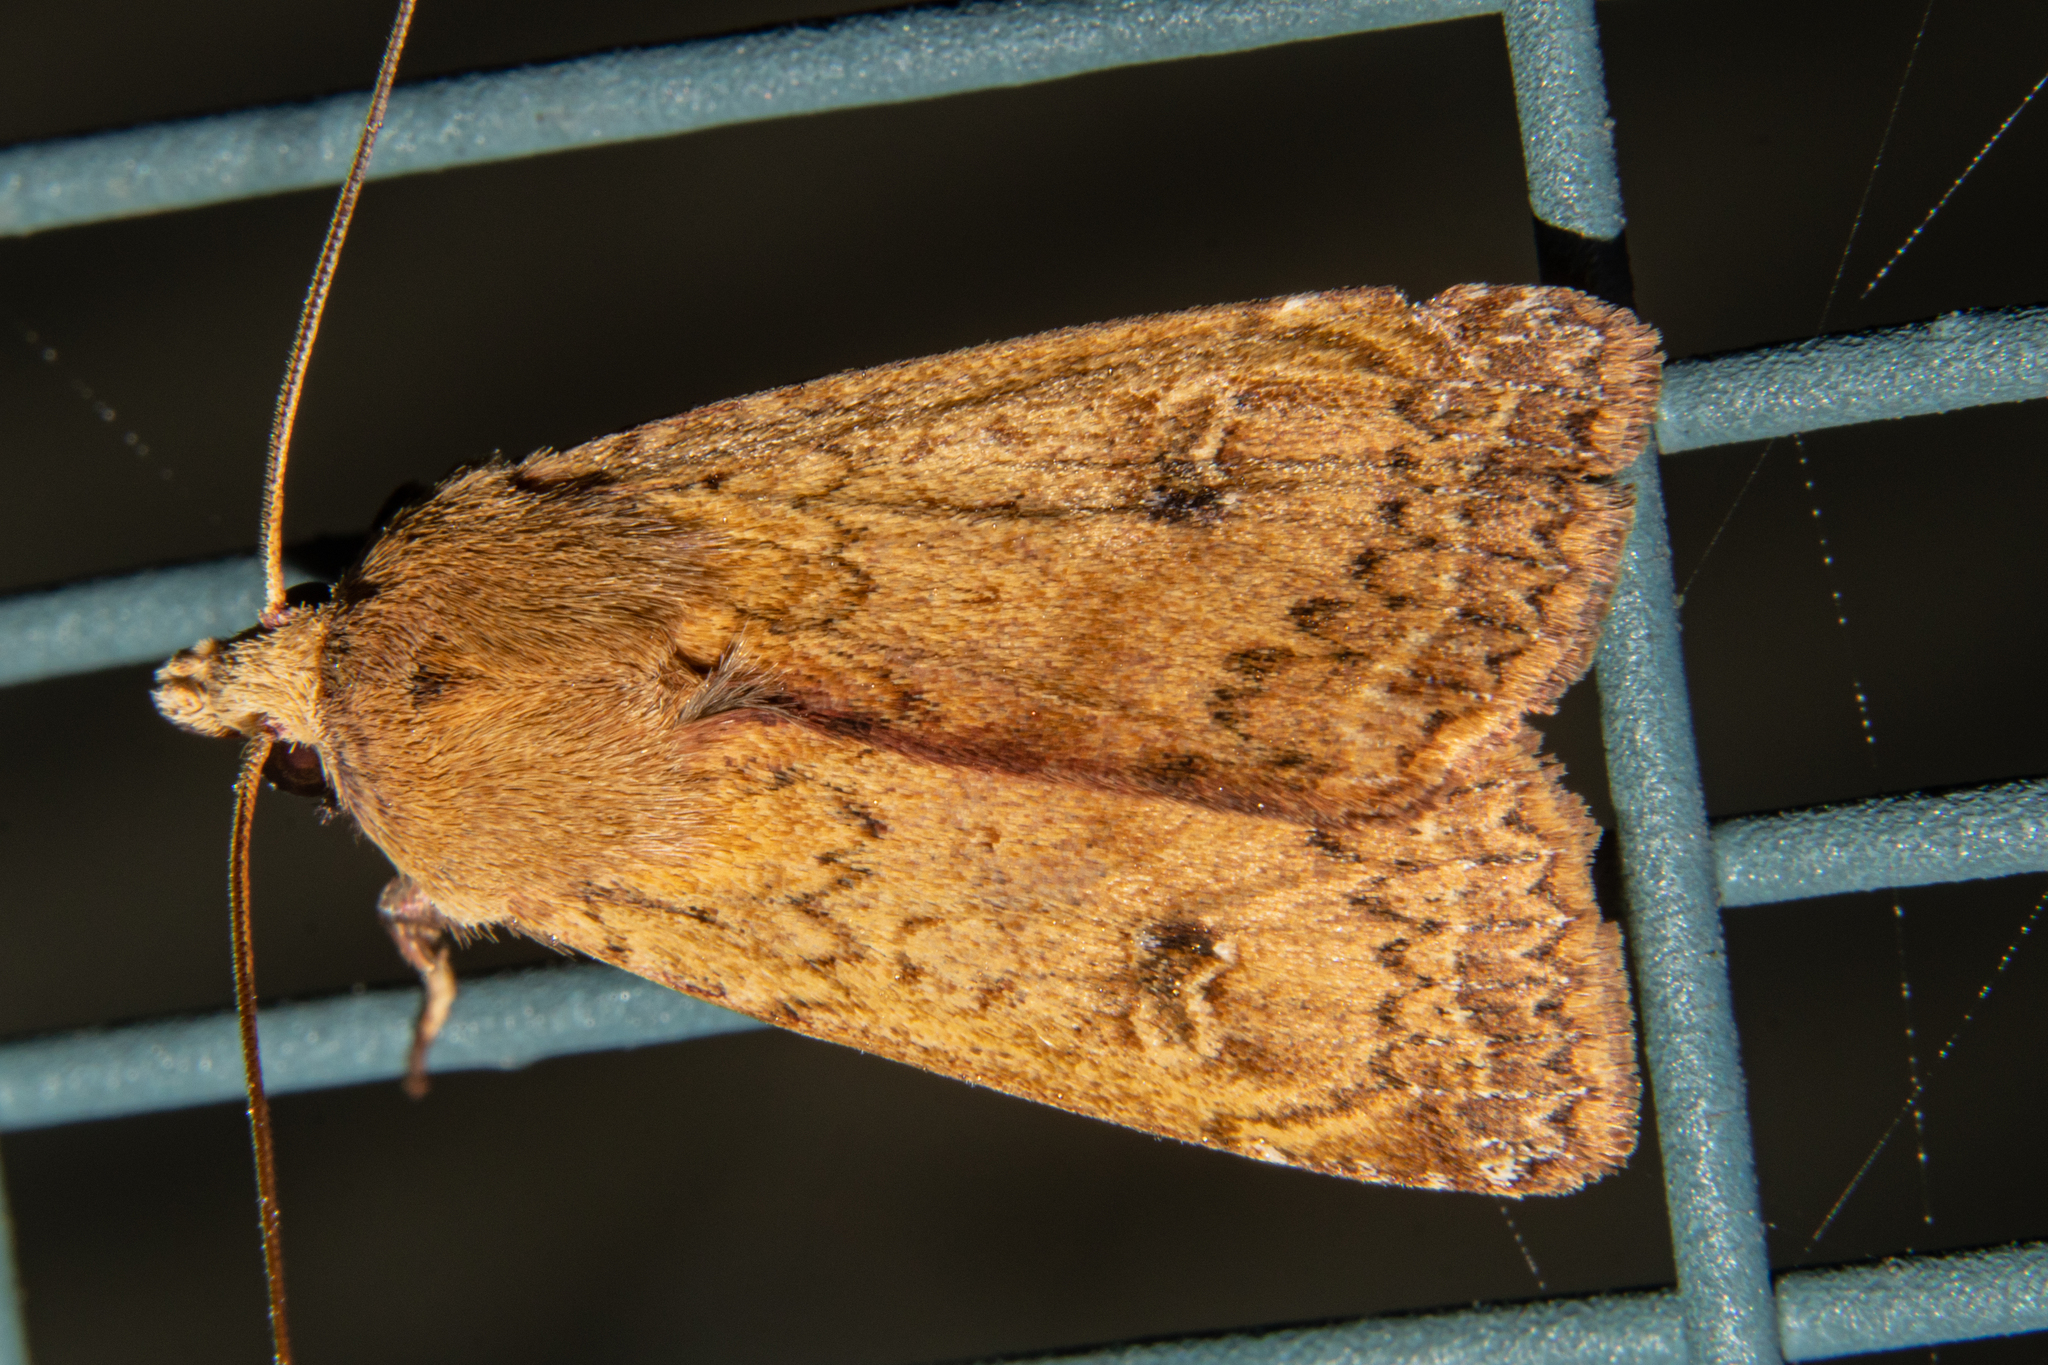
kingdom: Animalia
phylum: Arthropoda
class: Insecta
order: Lepidoptera
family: Noctuidae
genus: Diarsia
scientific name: Diarsia intermixta
